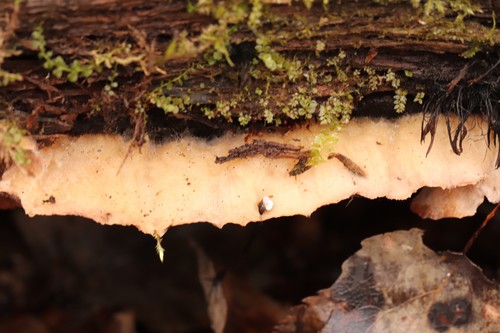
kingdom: Fungi
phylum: Basidiomycota
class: Agaricomycetes
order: Polyporales
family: Meruliaceae
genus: Phlebia
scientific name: Phlebia tremellosa
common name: Jelly rot
